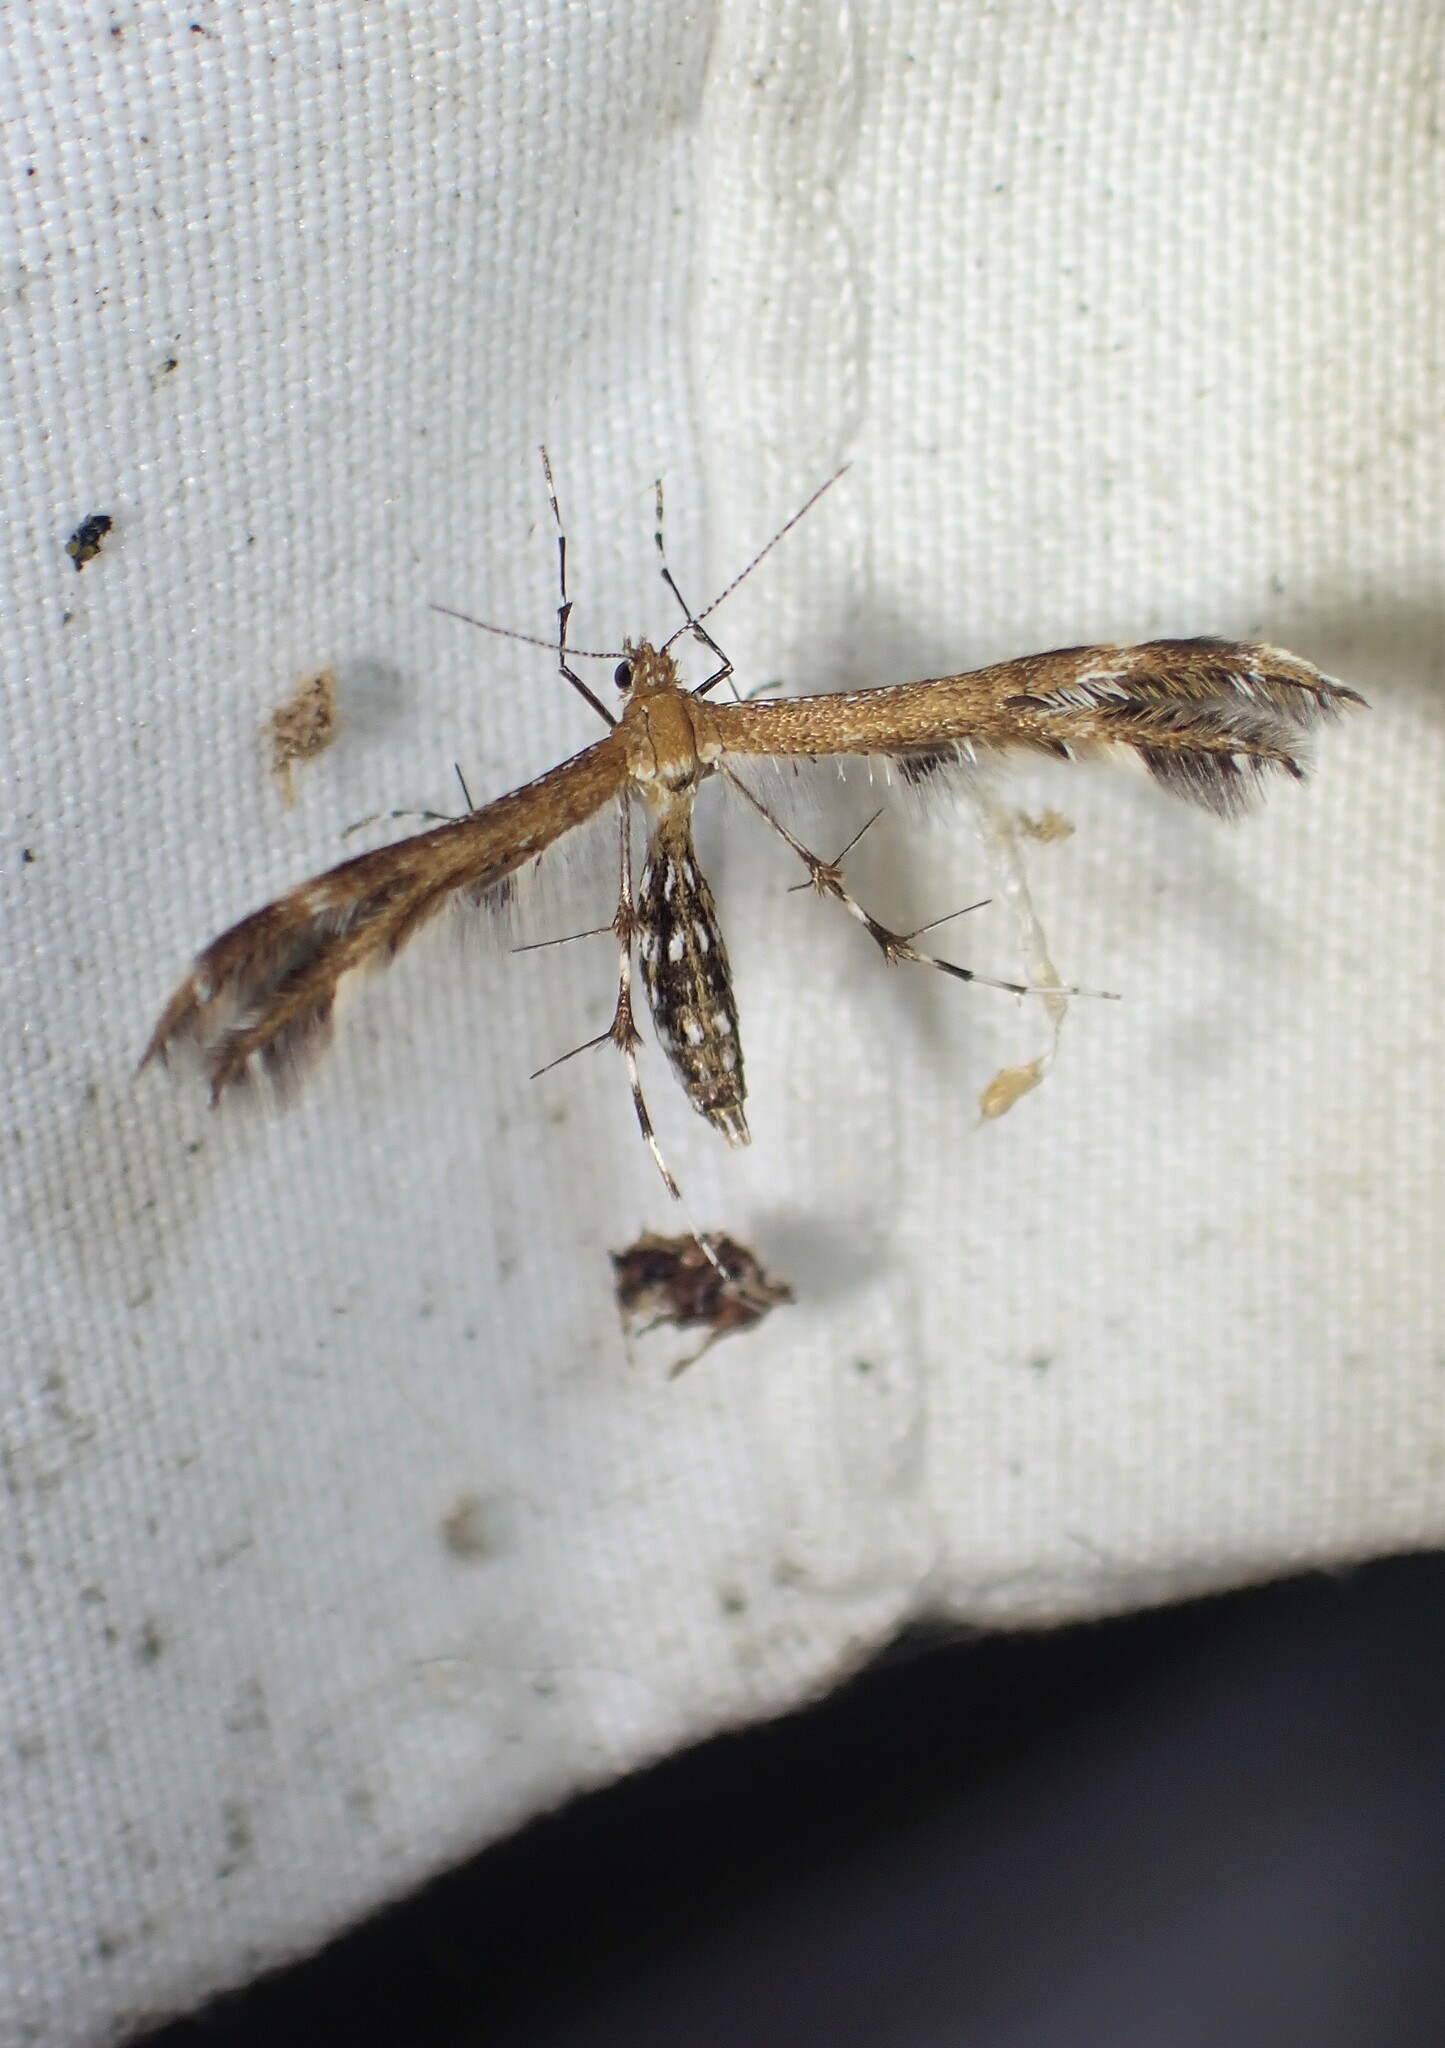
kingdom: Animalia
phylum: Arthropoda
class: Insecta
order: Lepidoptera
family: Pterophoridae
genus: Dejongia
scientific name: Dejongia lobidactylus
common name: Lobed plume moth
